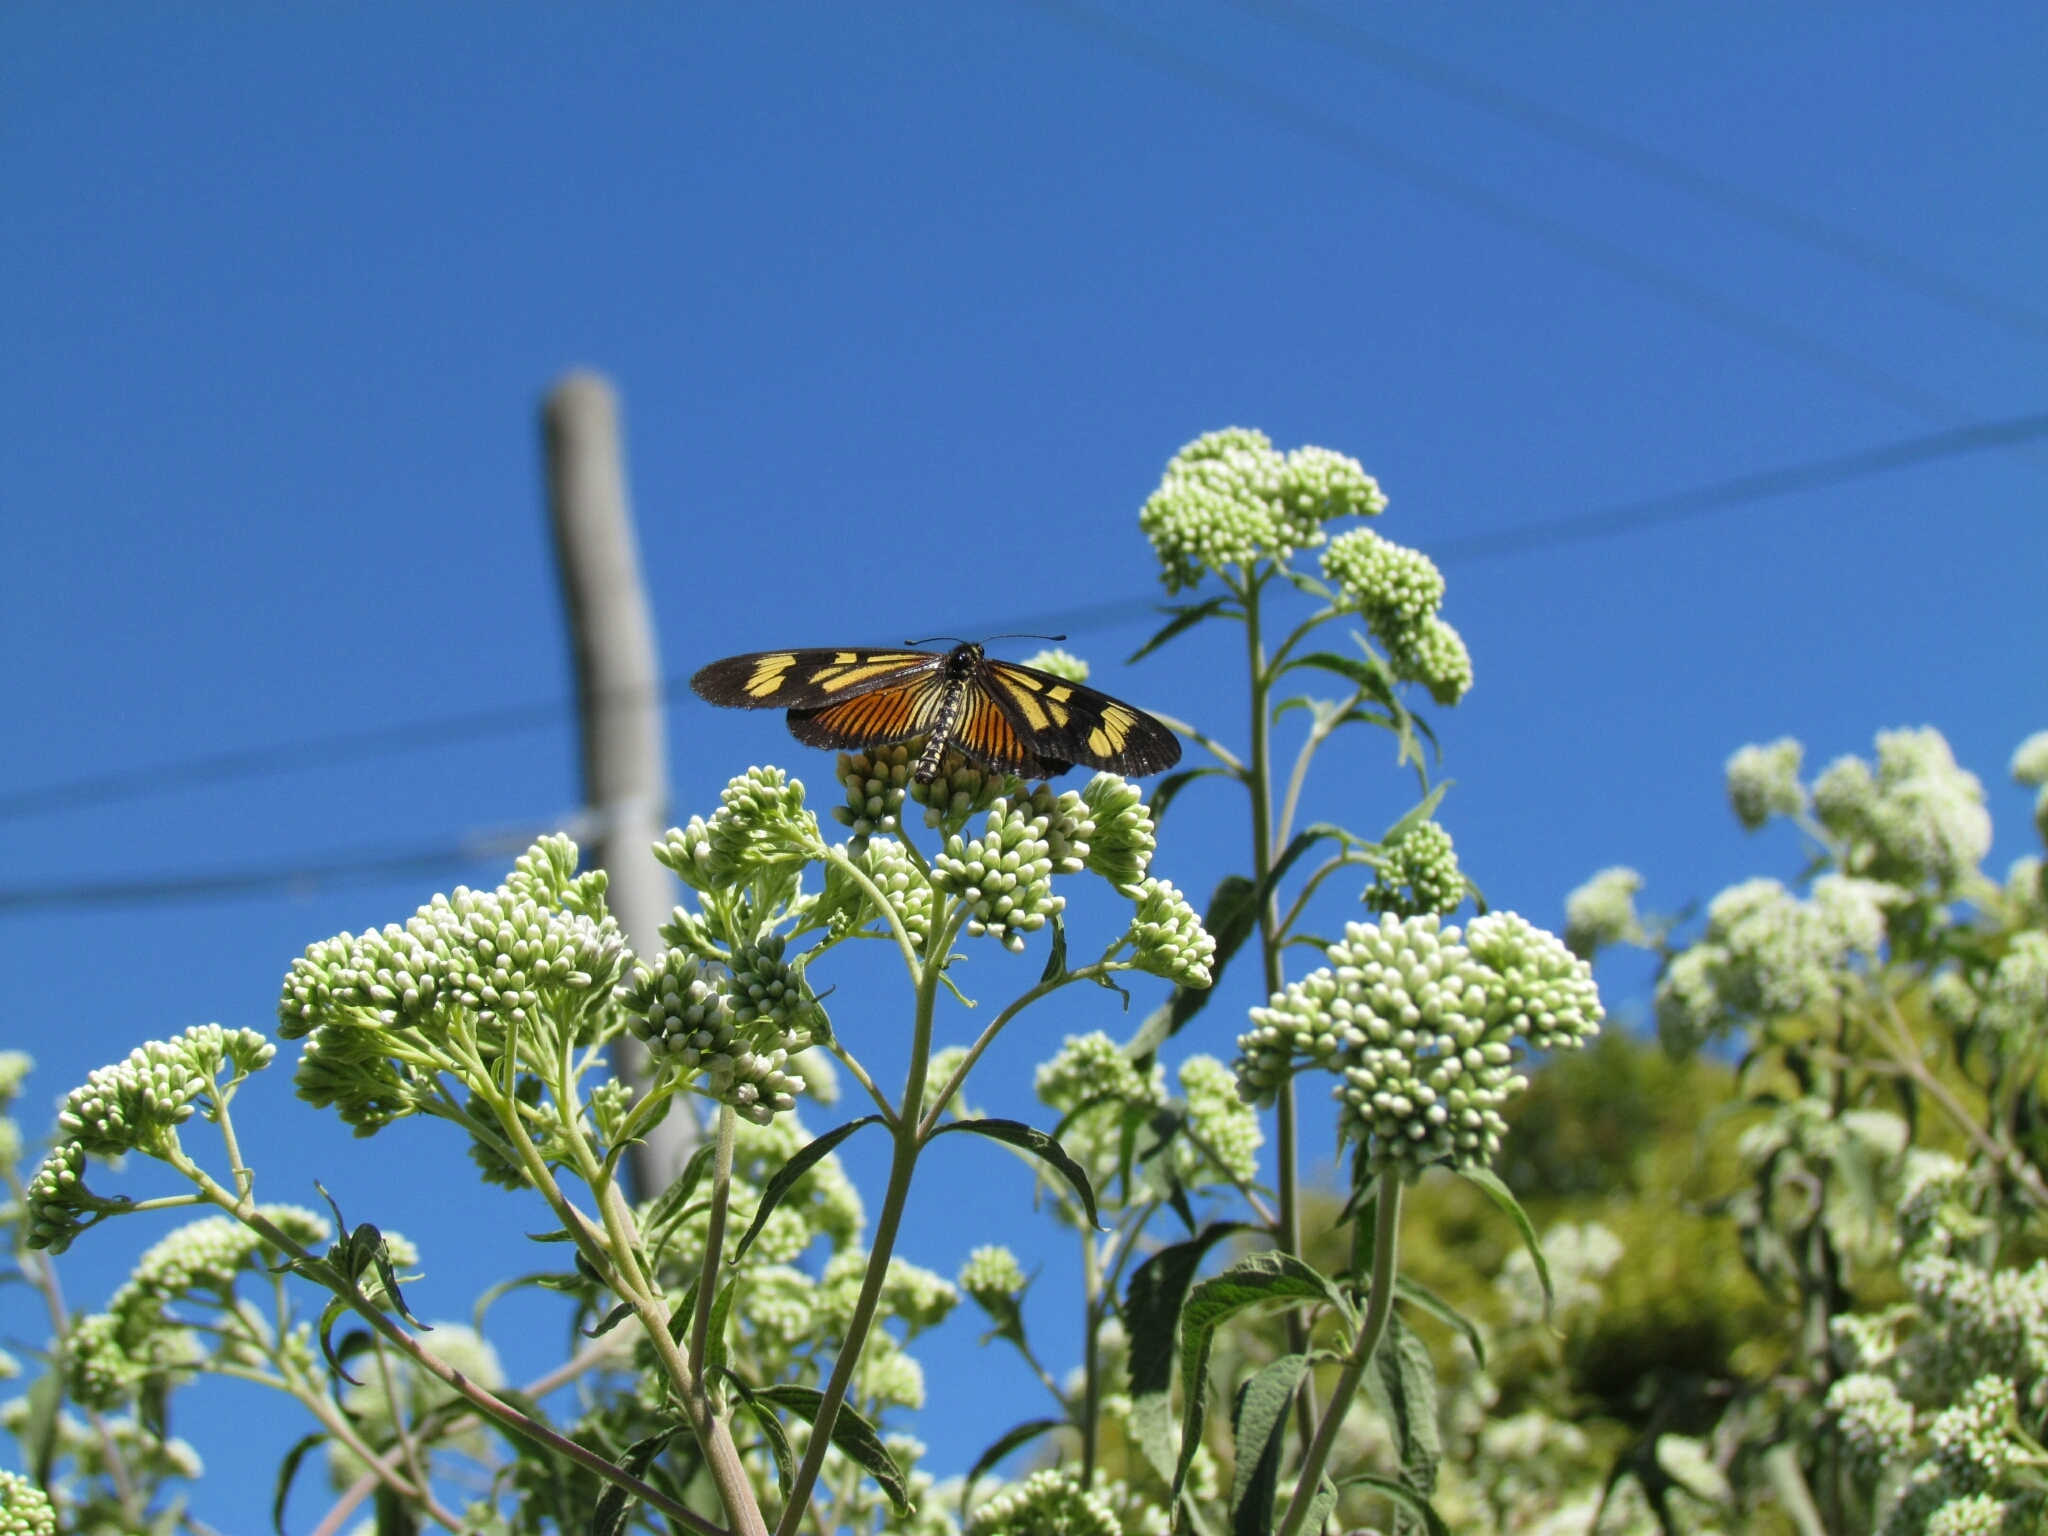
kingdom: Animalia
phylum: Arthropoda
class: Insecta
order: Lepidoptera
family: Nymphalidae
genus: Actinote
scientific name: Actinote pellenea
